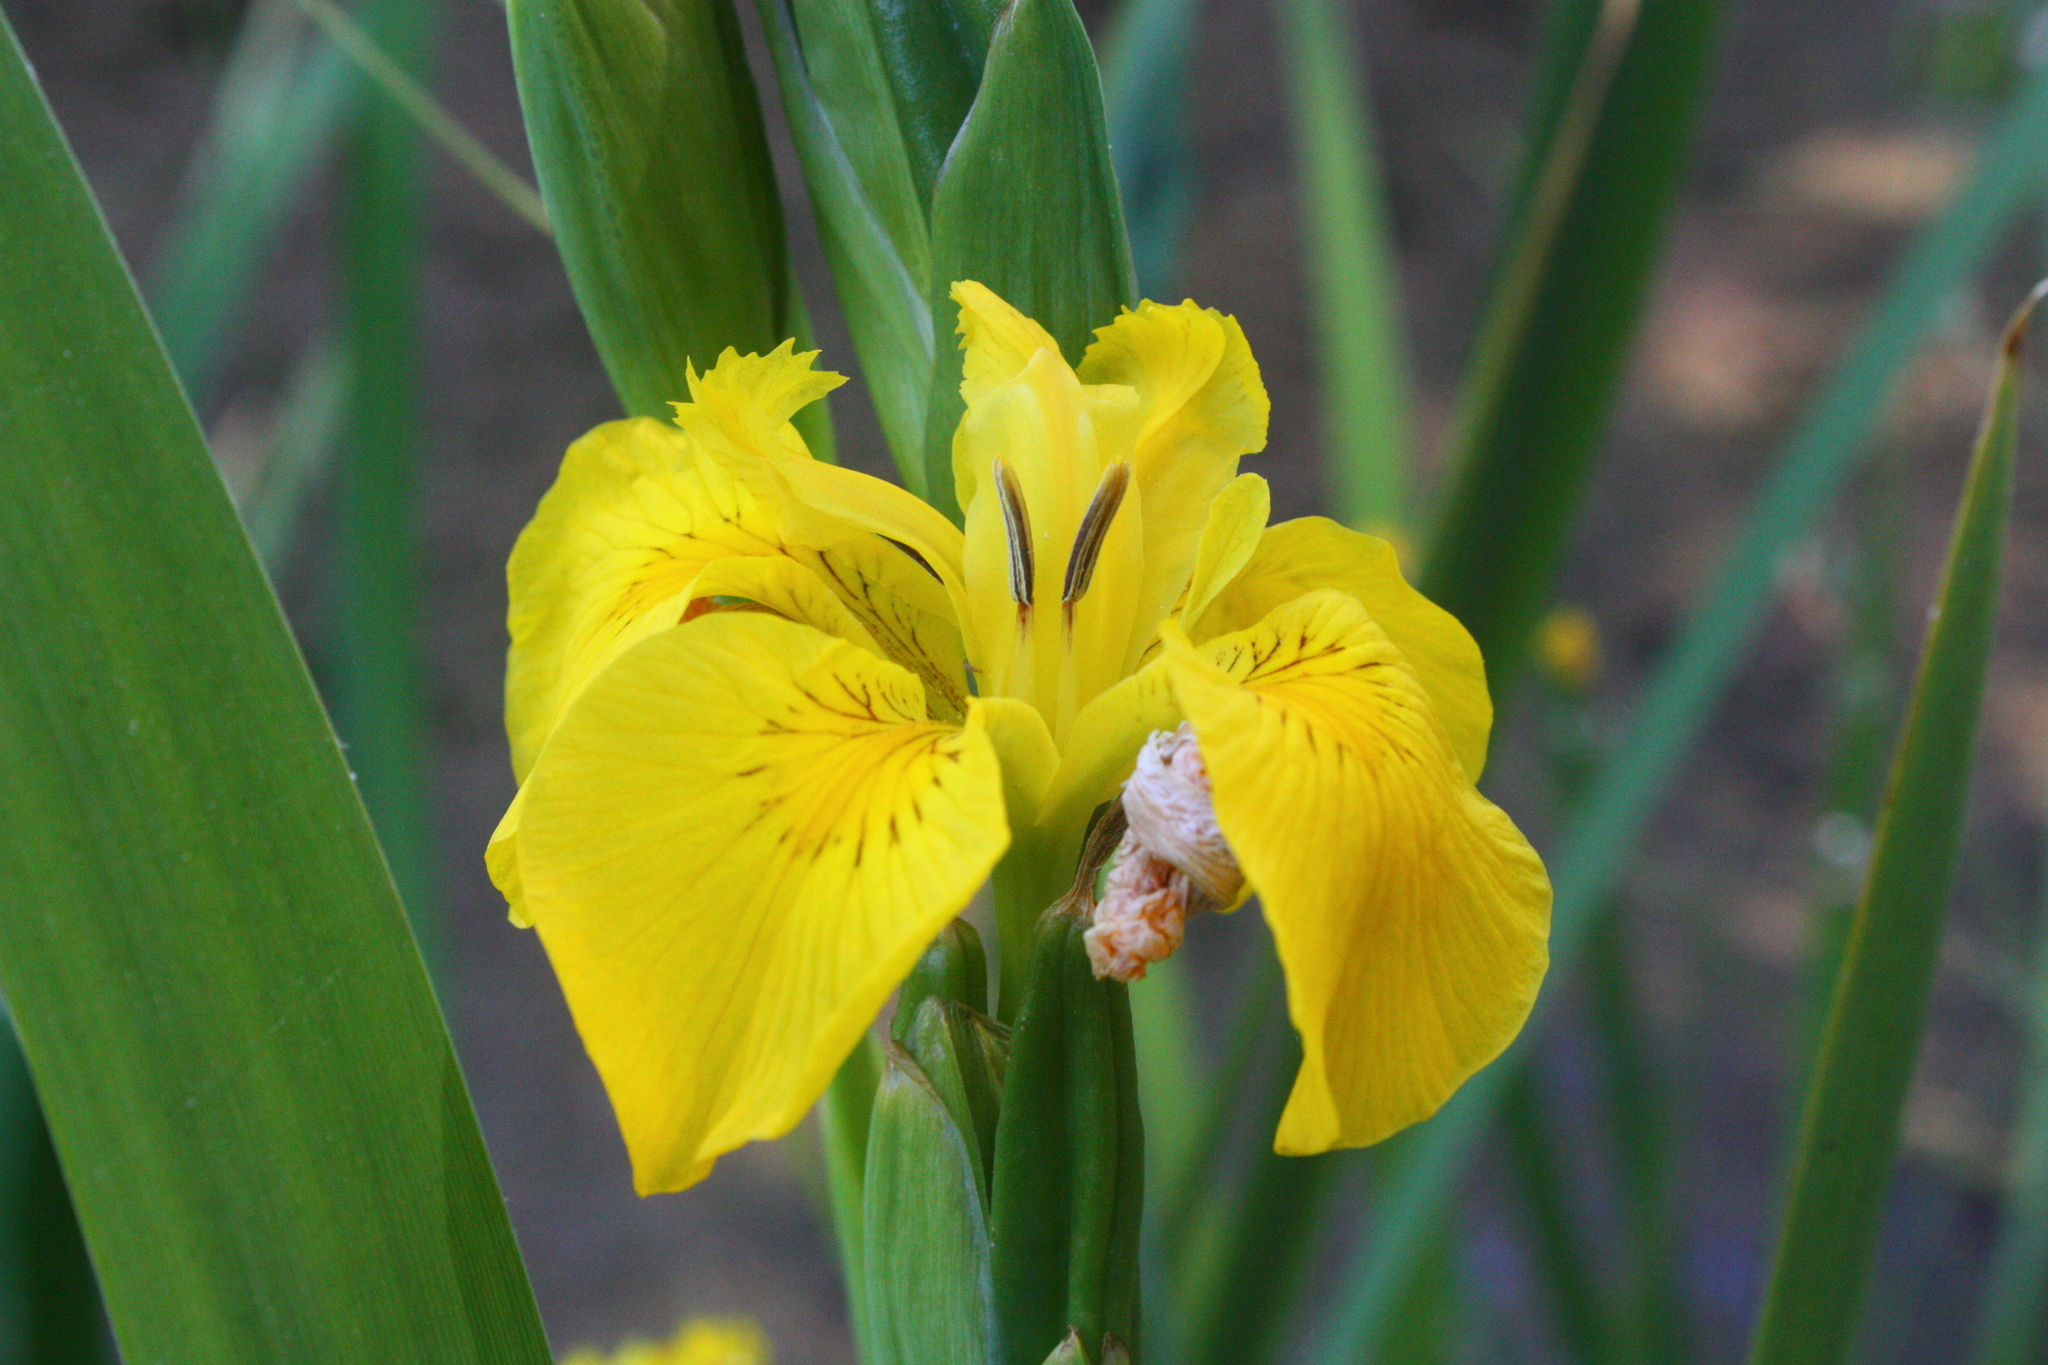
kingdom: Plantae
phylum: Tracheophyta
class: Liliopsida
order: Asparagales
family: Iridaceae
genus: Iris
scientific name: Iris pseudacorus
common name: Yellow flag
